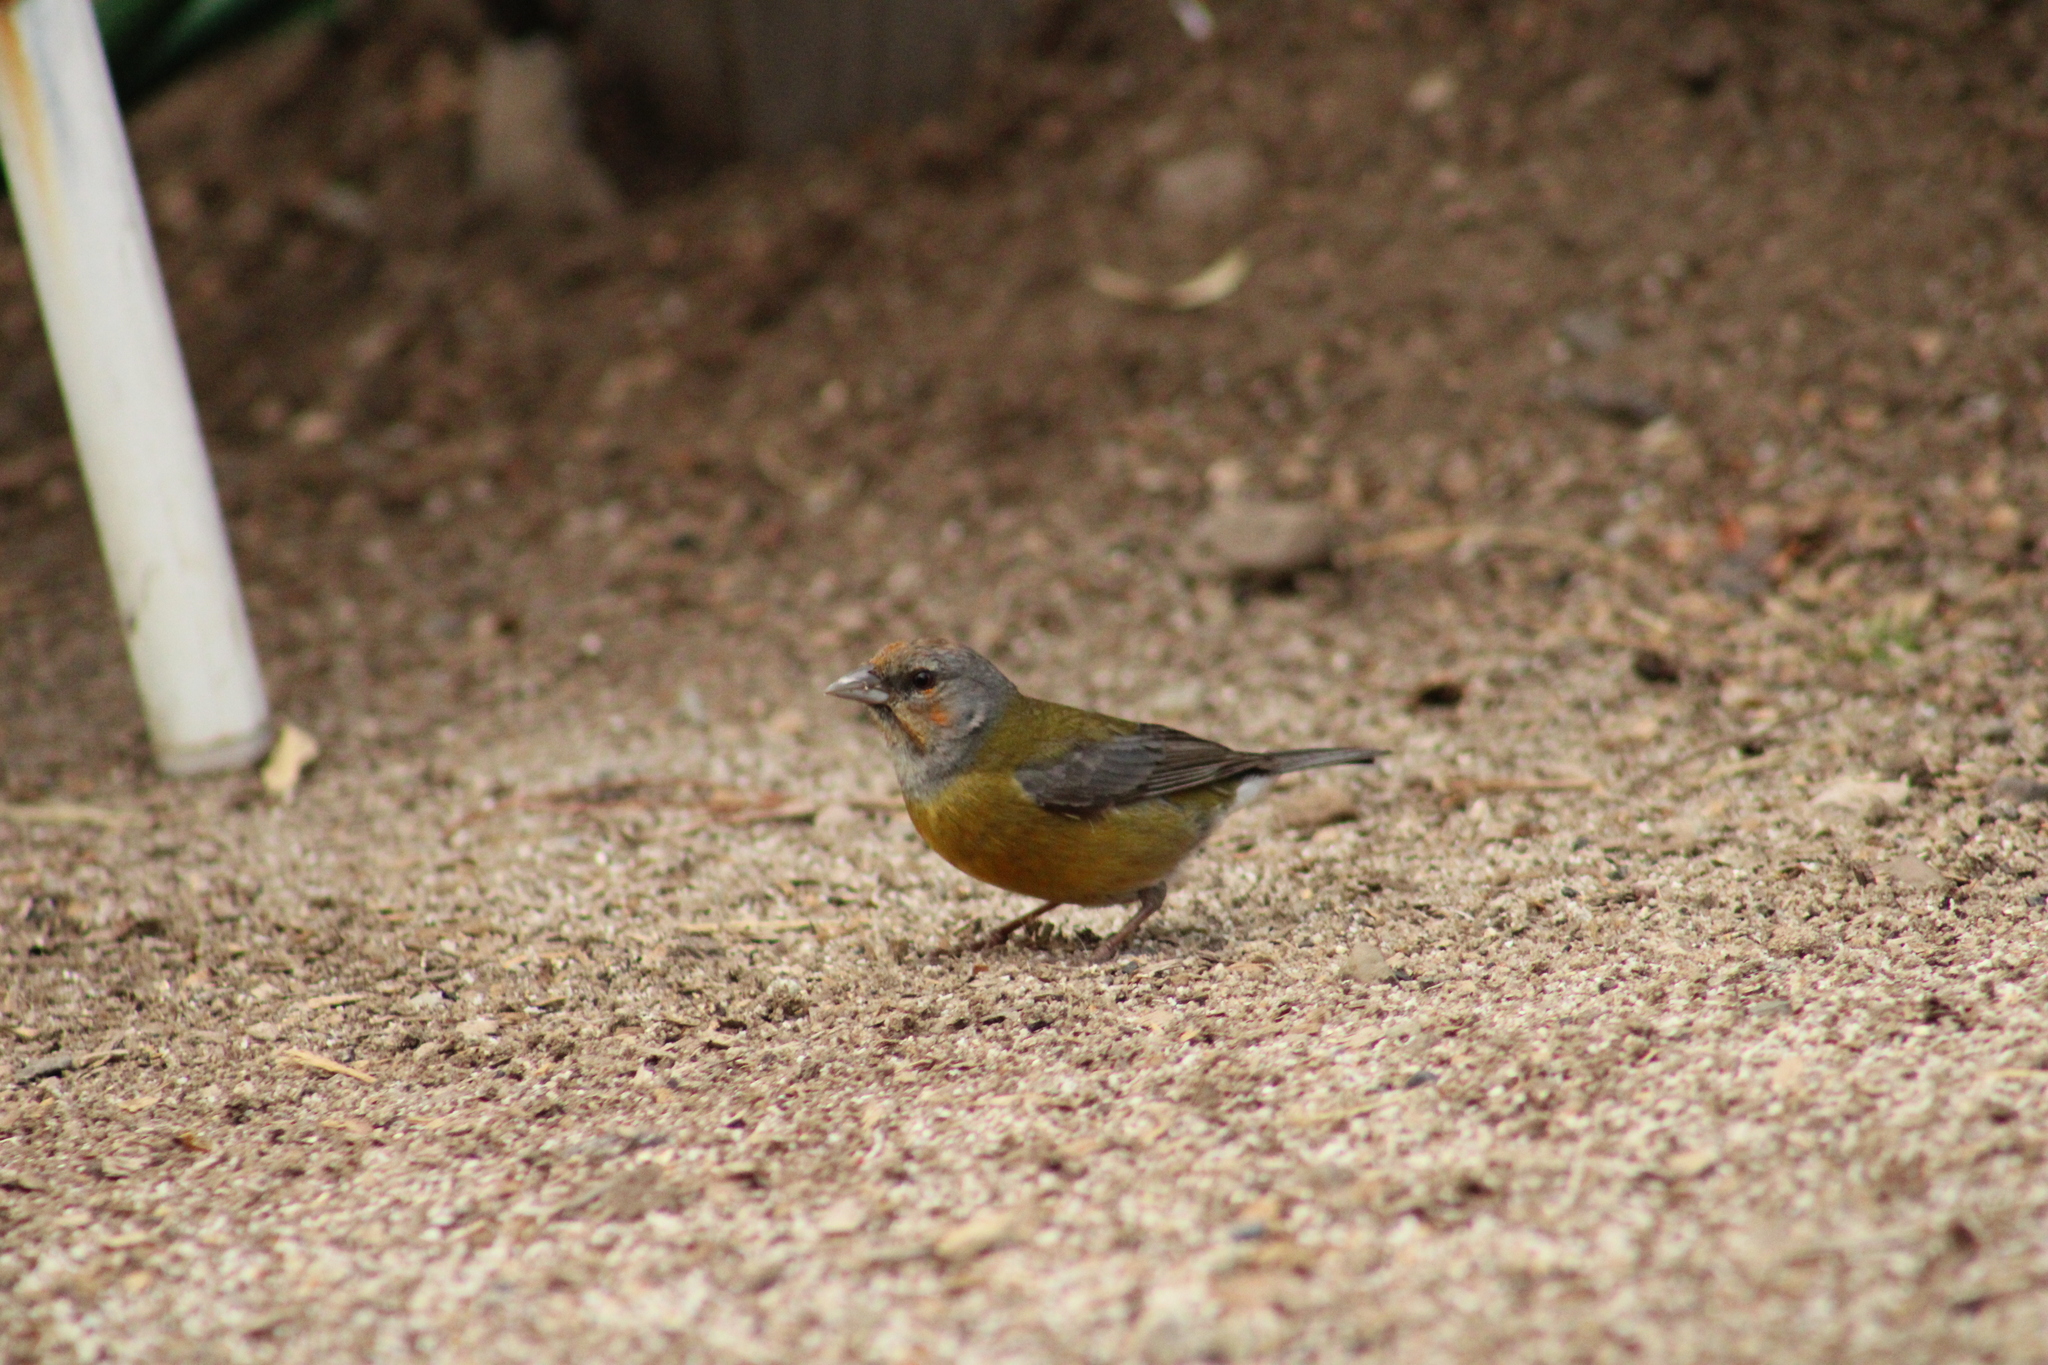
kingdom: Animalia
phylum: Chordata
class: Aves
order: Passeriformes
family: Thraupidae
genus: Phrygilus
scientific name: Phrygilus gayi
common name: Grey-hooded sierra finch
